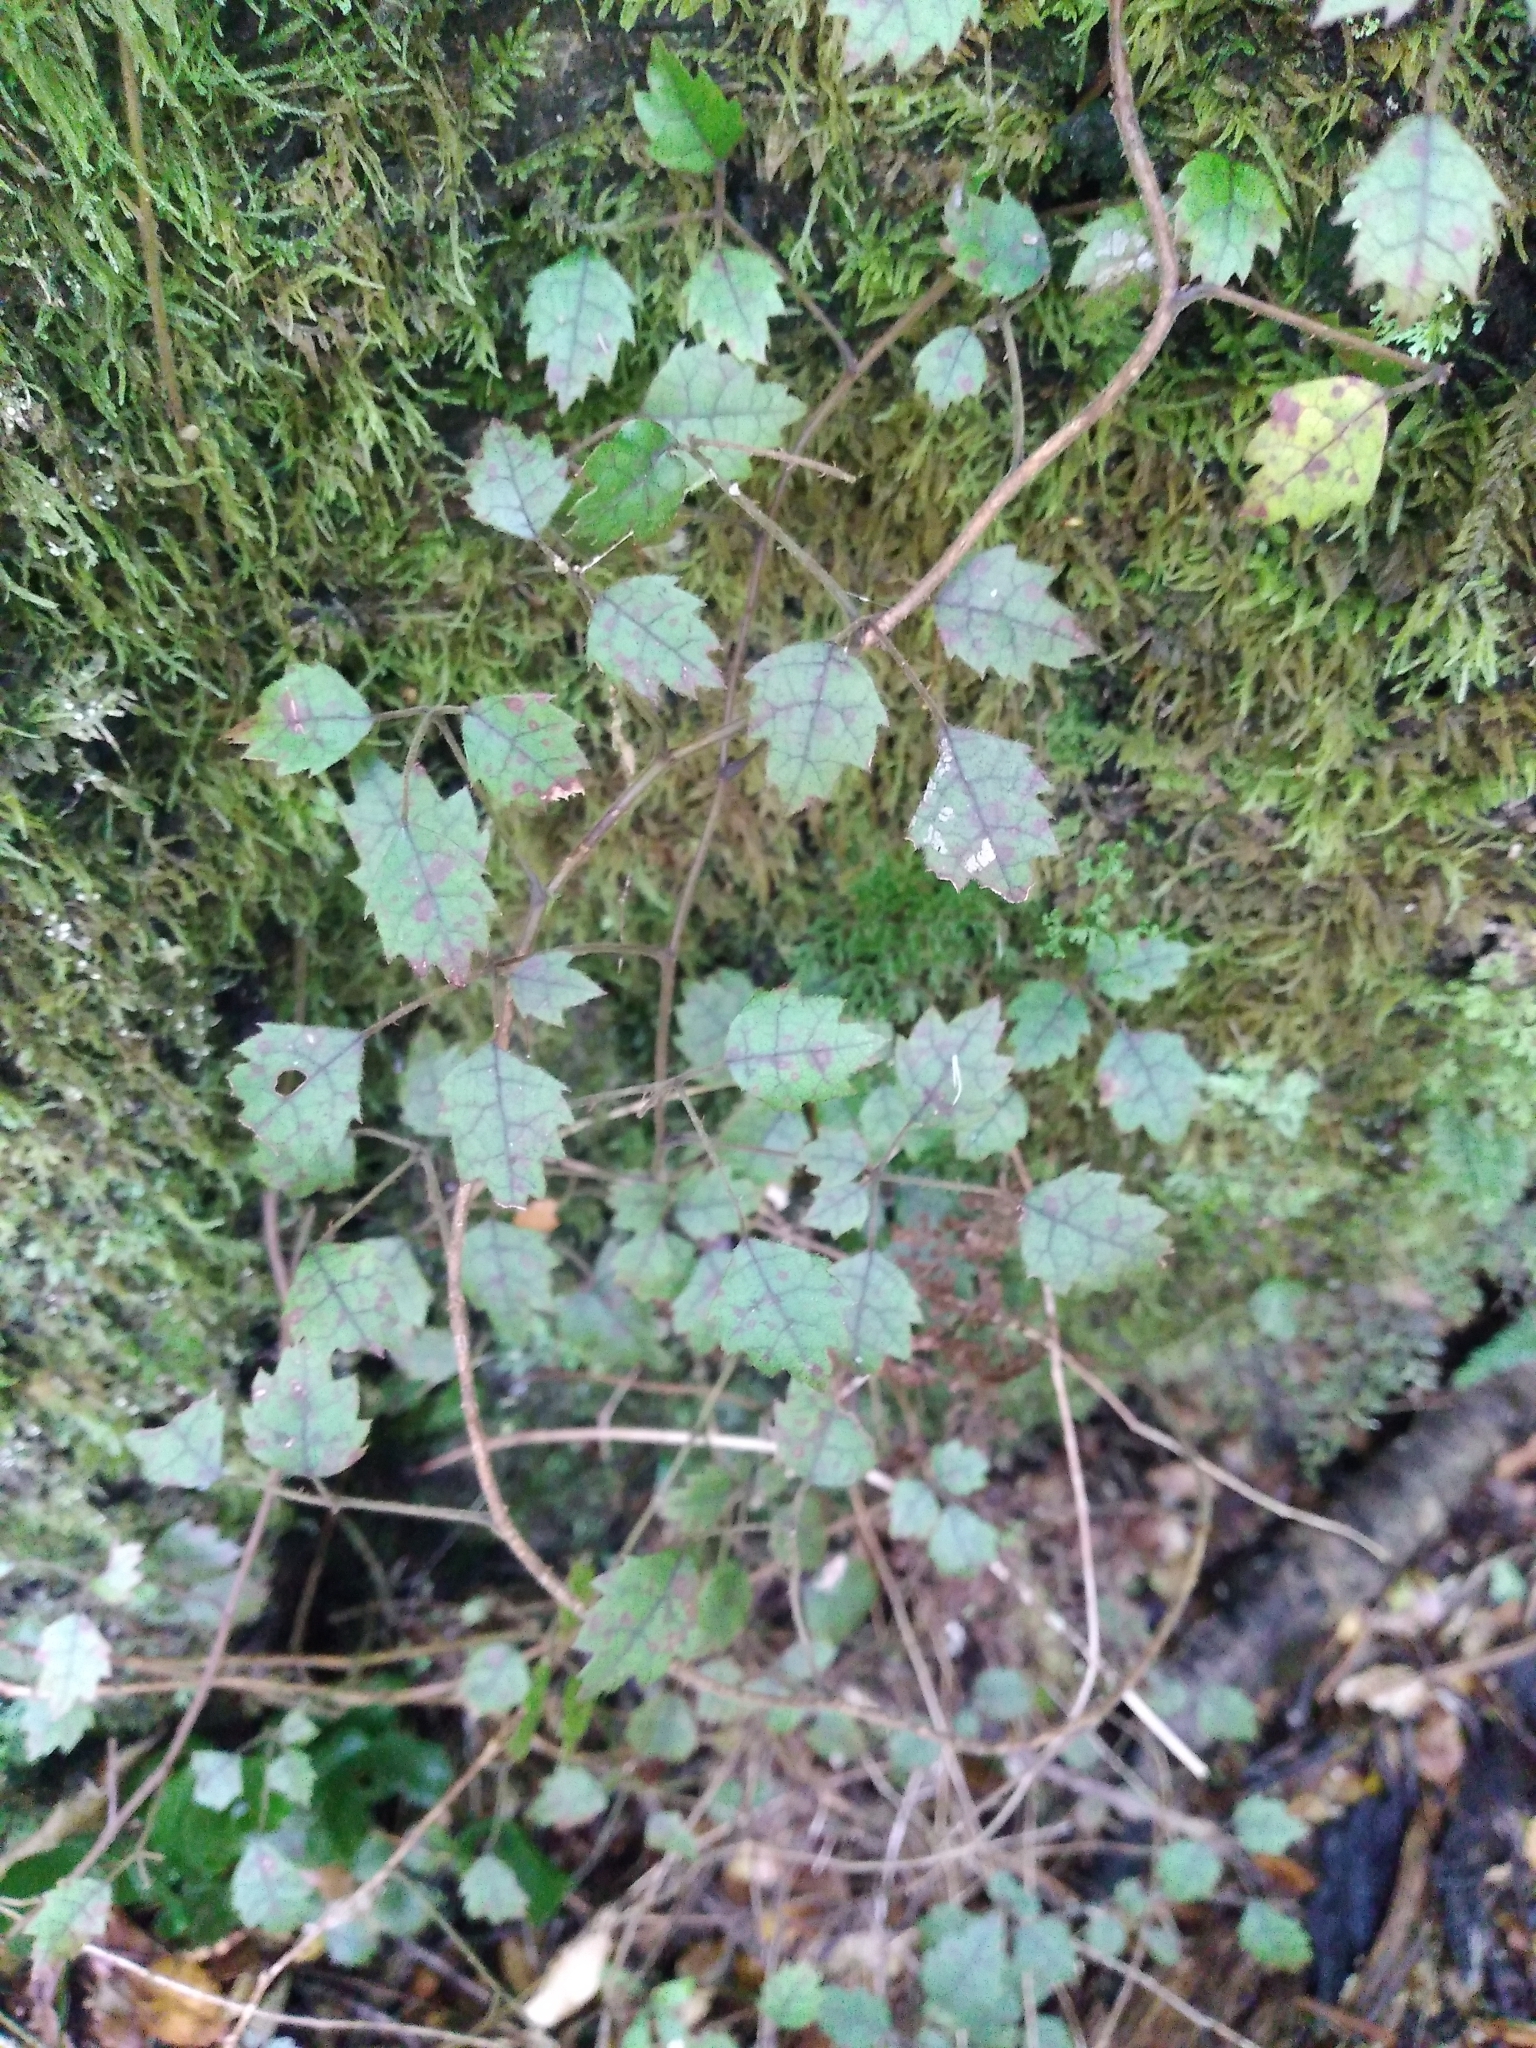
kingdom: Plantae
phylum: Tracheophyta
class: Magnoliopsida
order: Rosales
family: Rosaceae
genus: Rubus
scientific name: Rubus australis
